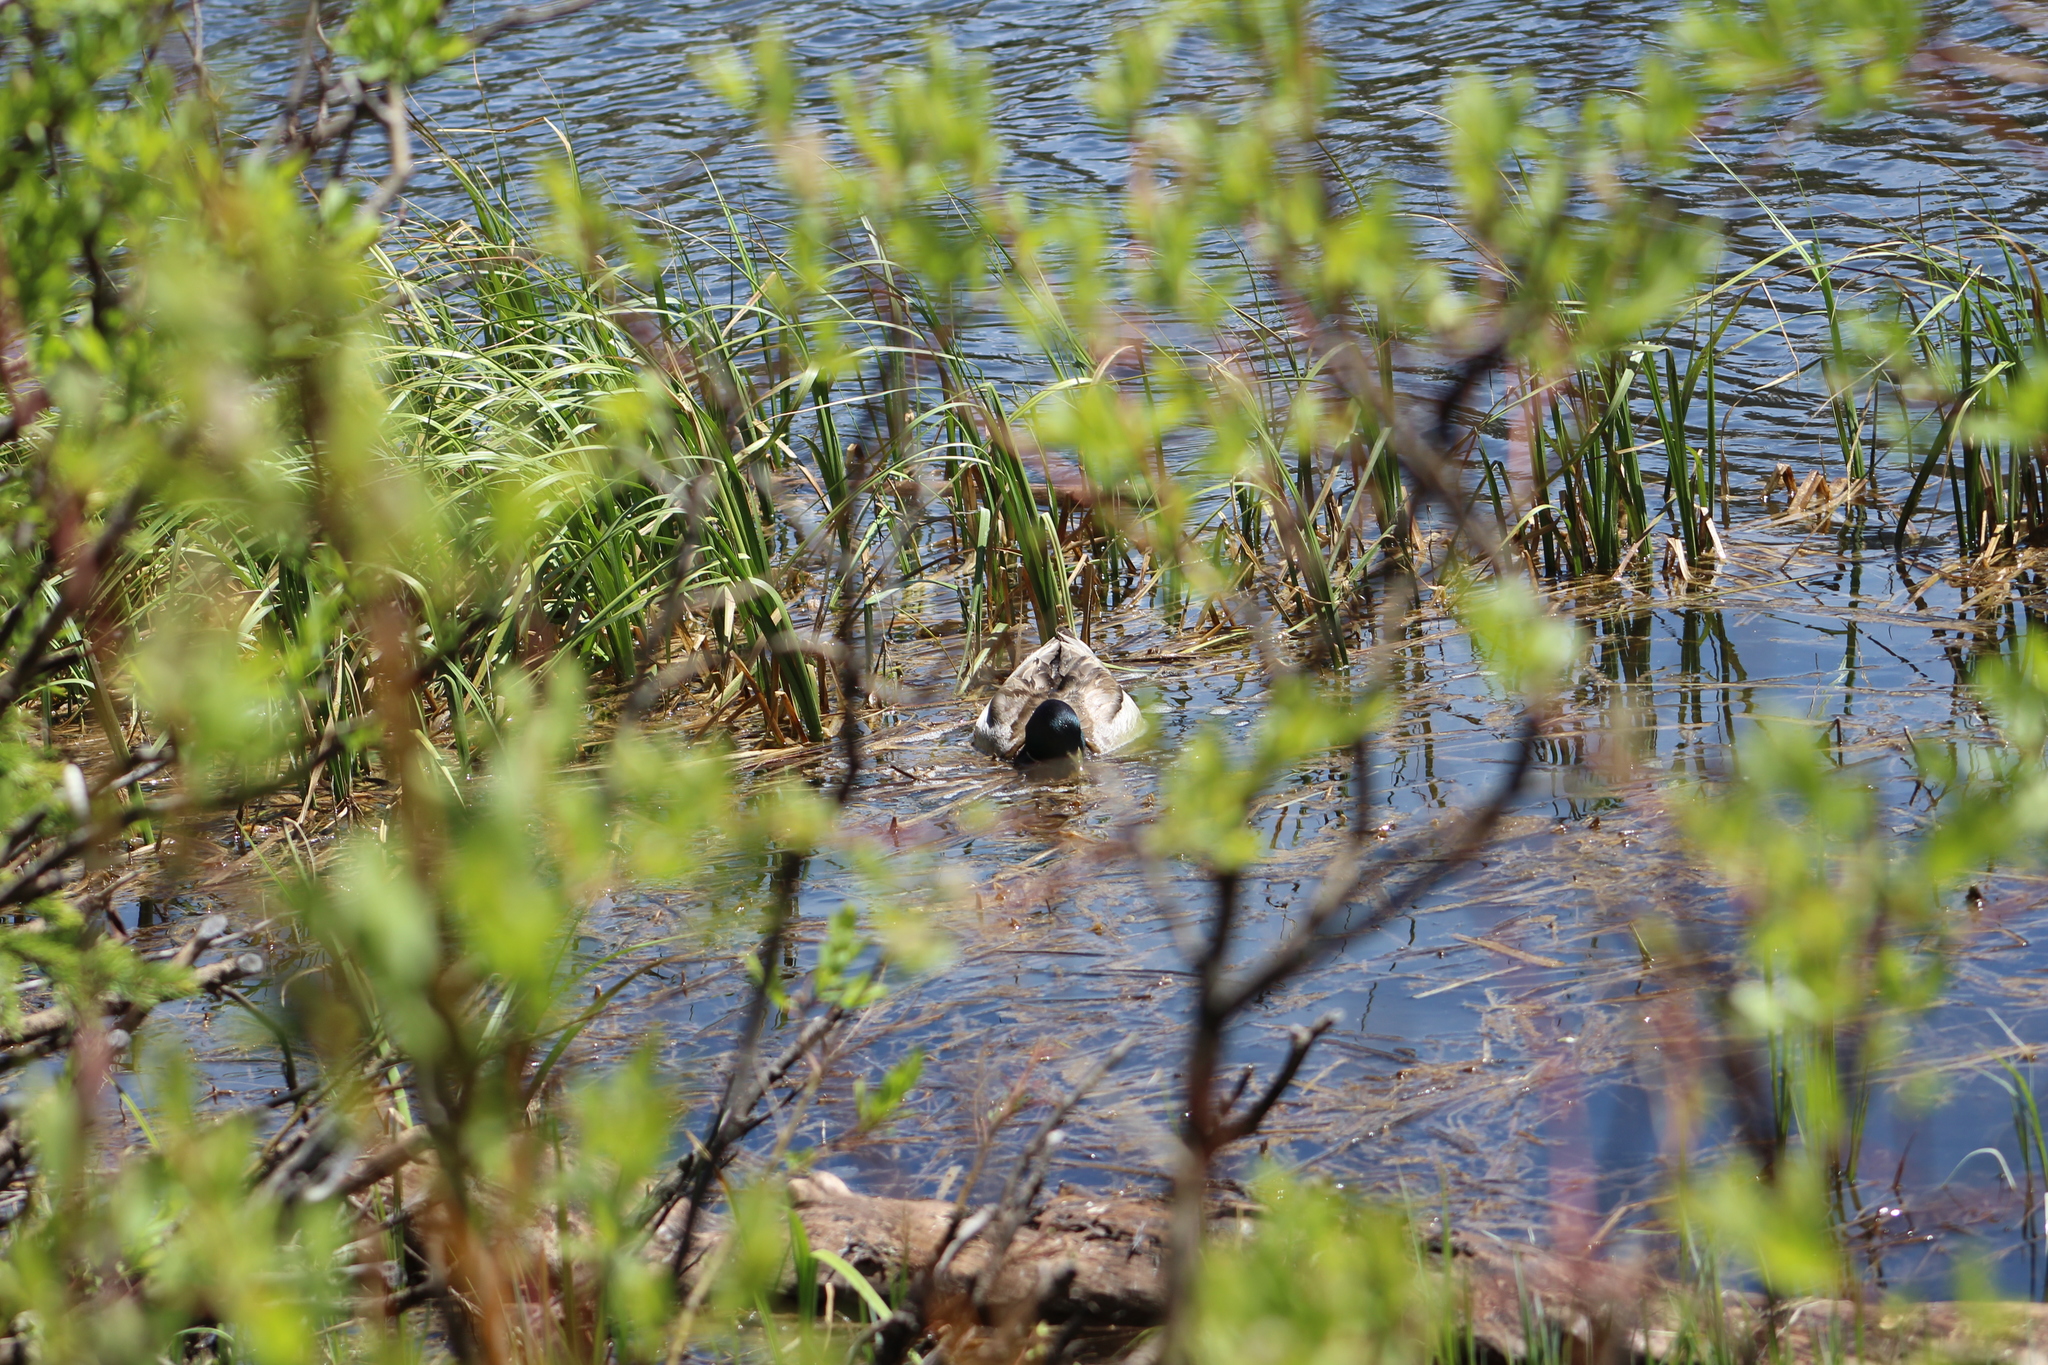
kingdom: Animalia
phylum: Chordata
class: Aves
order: Anseriformes
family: Anatidae
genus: Anas
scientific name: Anas platyrhynchos
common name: Mallard
